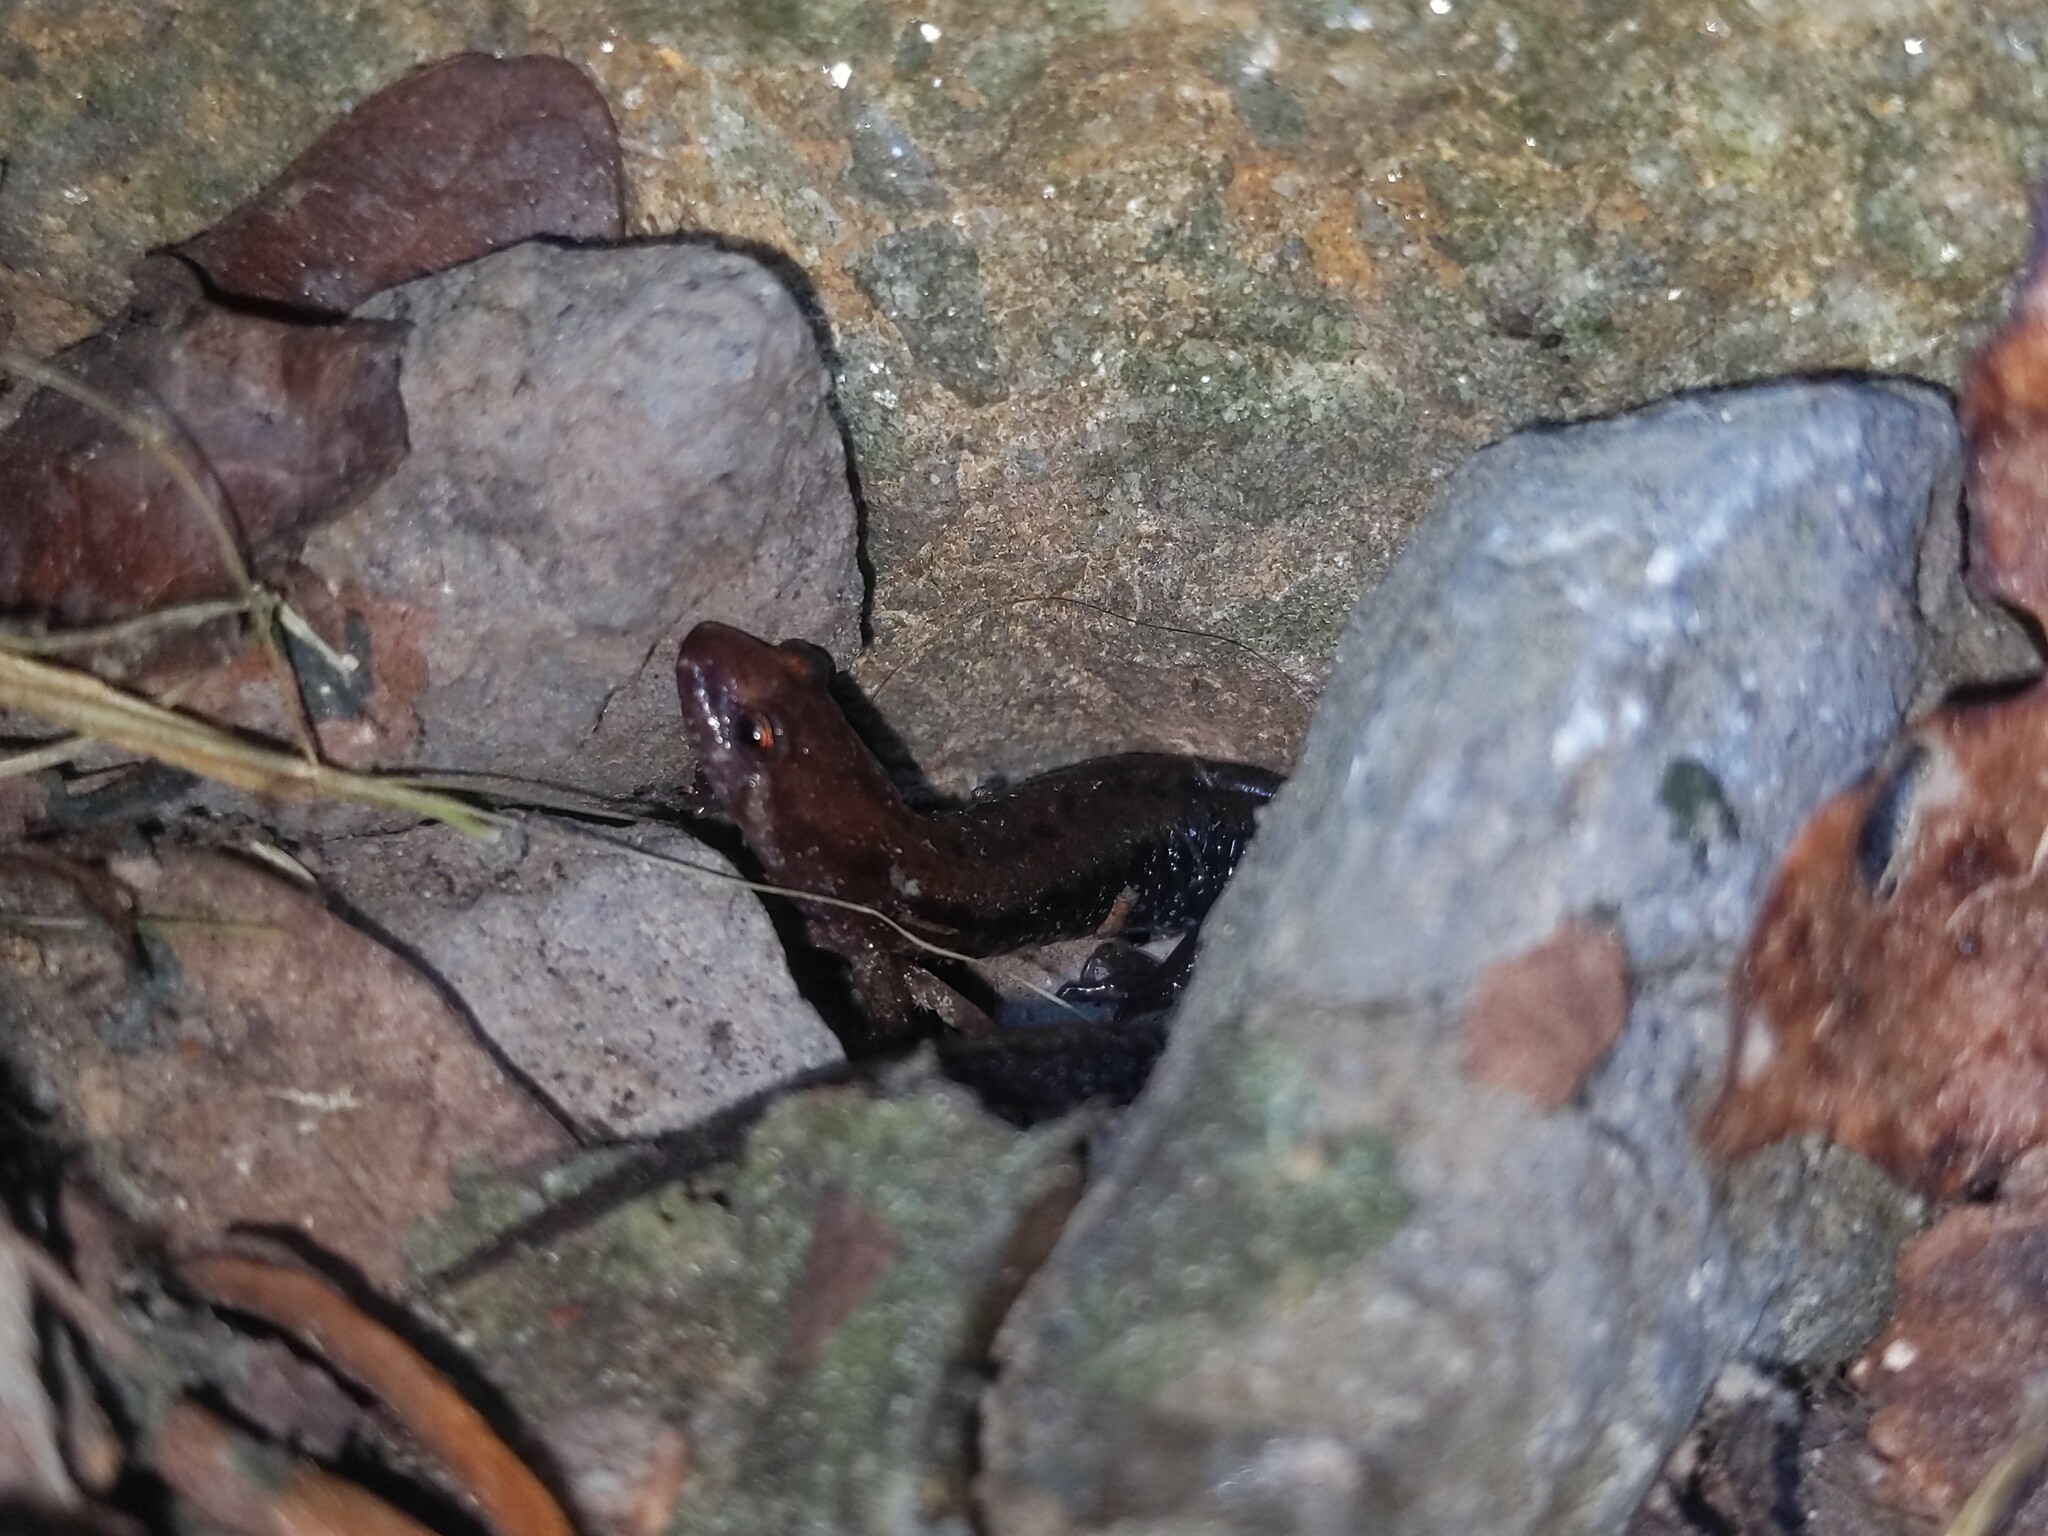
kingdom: Animalia
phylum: Chordata
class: Amphibia
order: Caudata
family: Plethodontidae
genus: Desmognathus
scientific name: Desmognathus ochrophaeus
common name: Allegheny mountain dusky salamander
